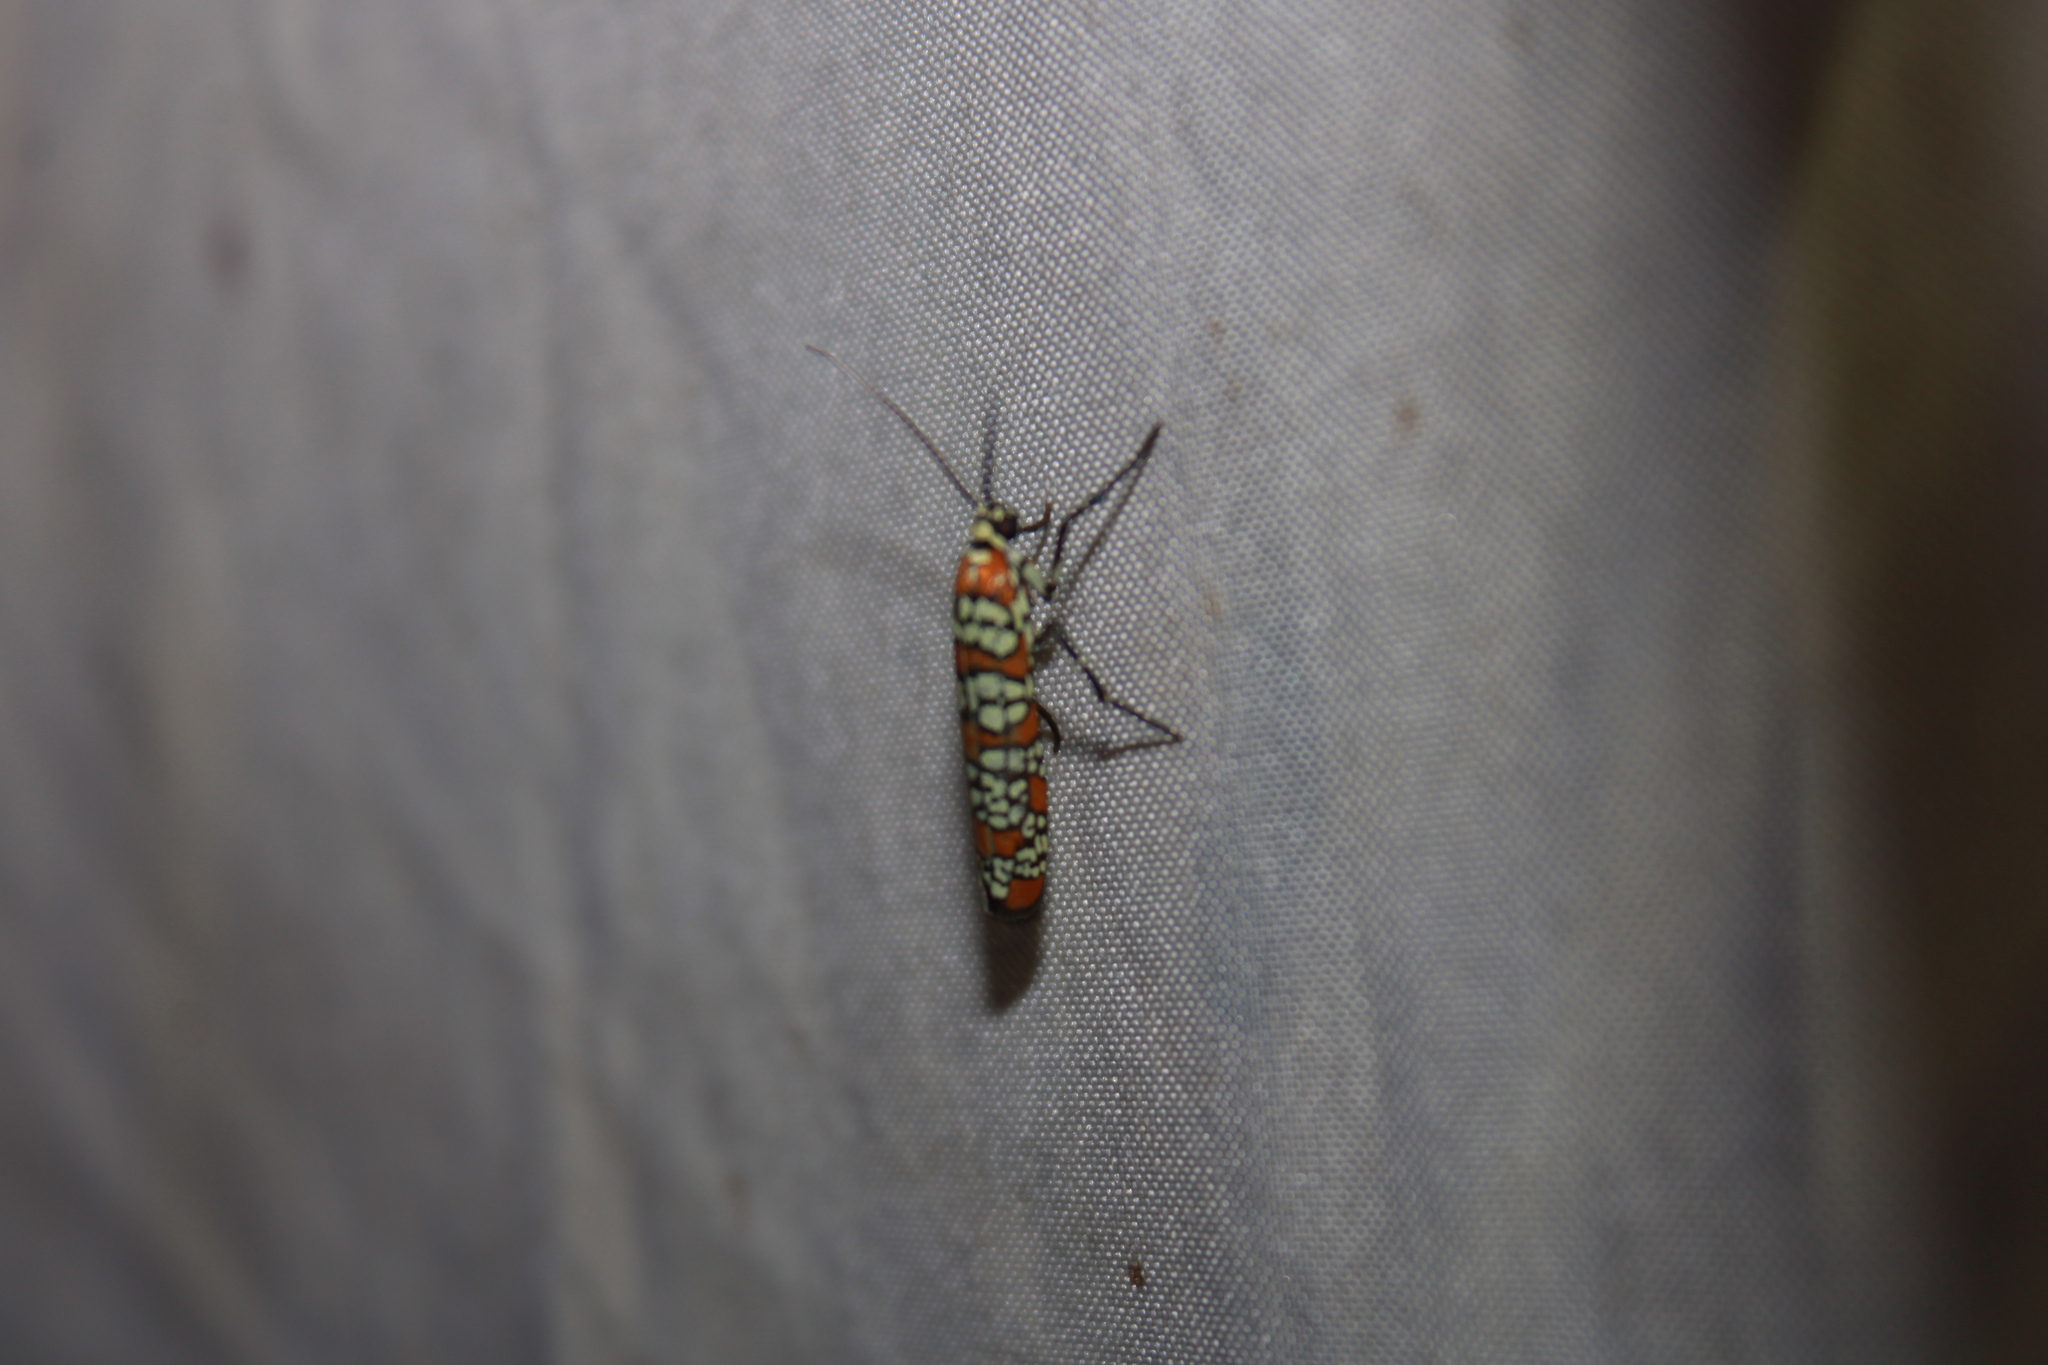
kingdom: Animalia
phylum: Arthropoda
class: Insecta
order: Lepidoptera
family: Attevidae
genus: Atteva
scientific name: Atteva punctella
